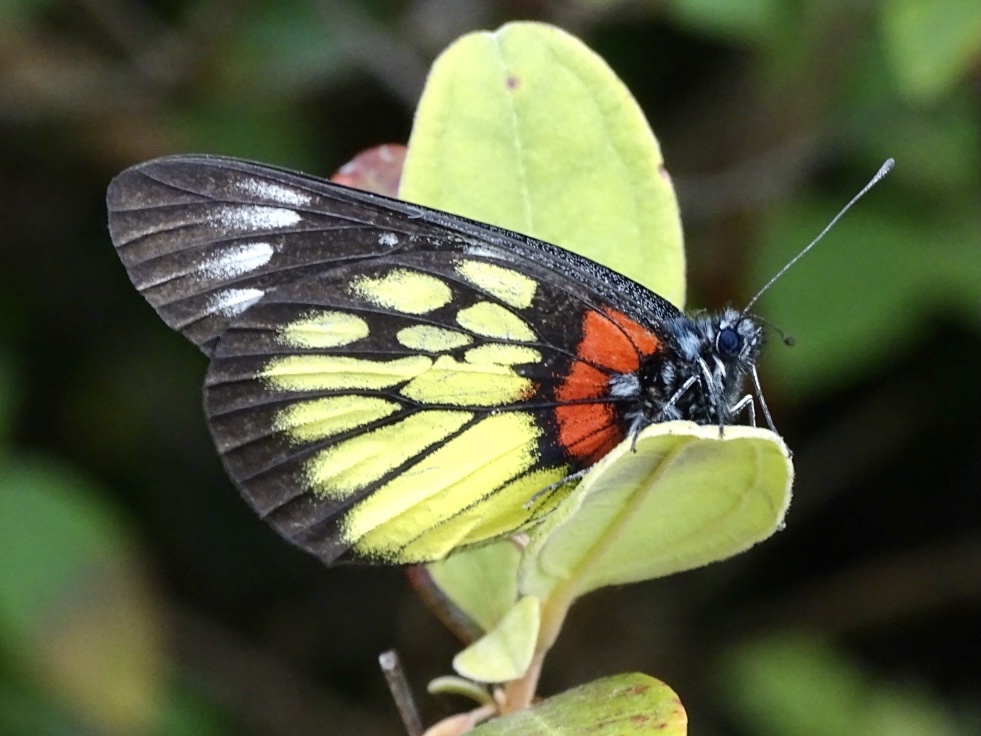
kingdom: Animalia
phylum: Arthropoda
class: Insecta
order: Lepidoptera
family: Pieridae
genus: Delias
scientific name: Delias pasithoe
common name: Red-base jezebel
